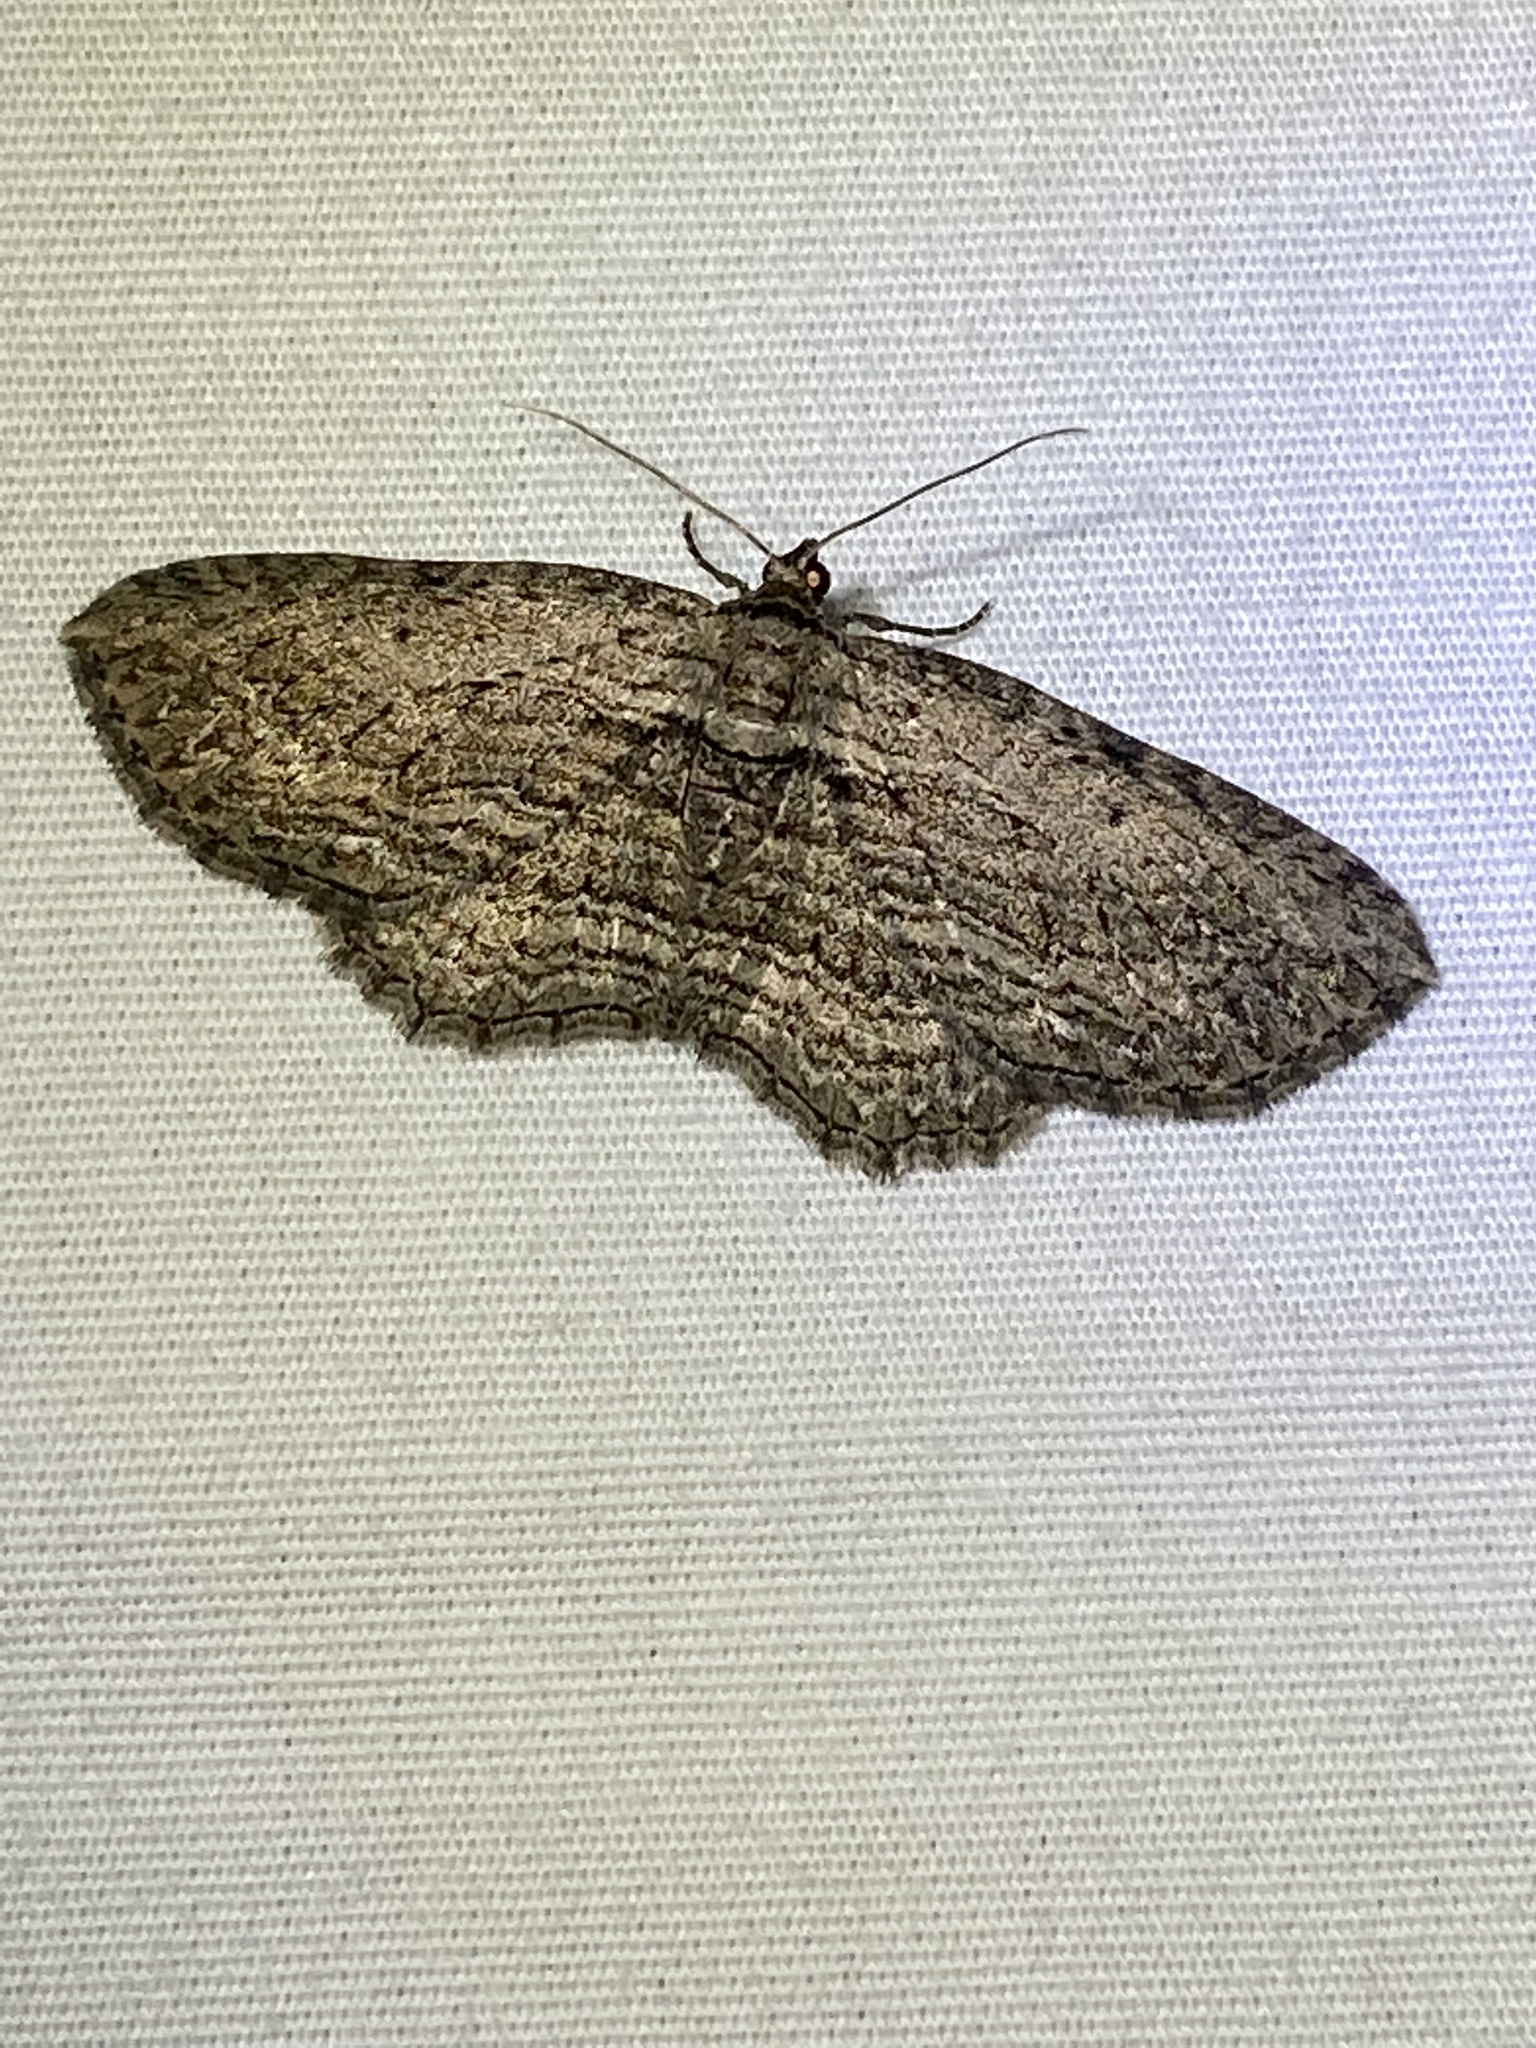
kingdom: Animalia
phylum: Arthropoda
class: Insecta
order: Lepidoptera
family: Geometridae
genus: Horisme
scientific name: Horisme intestinata
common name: Brown bark carpet
